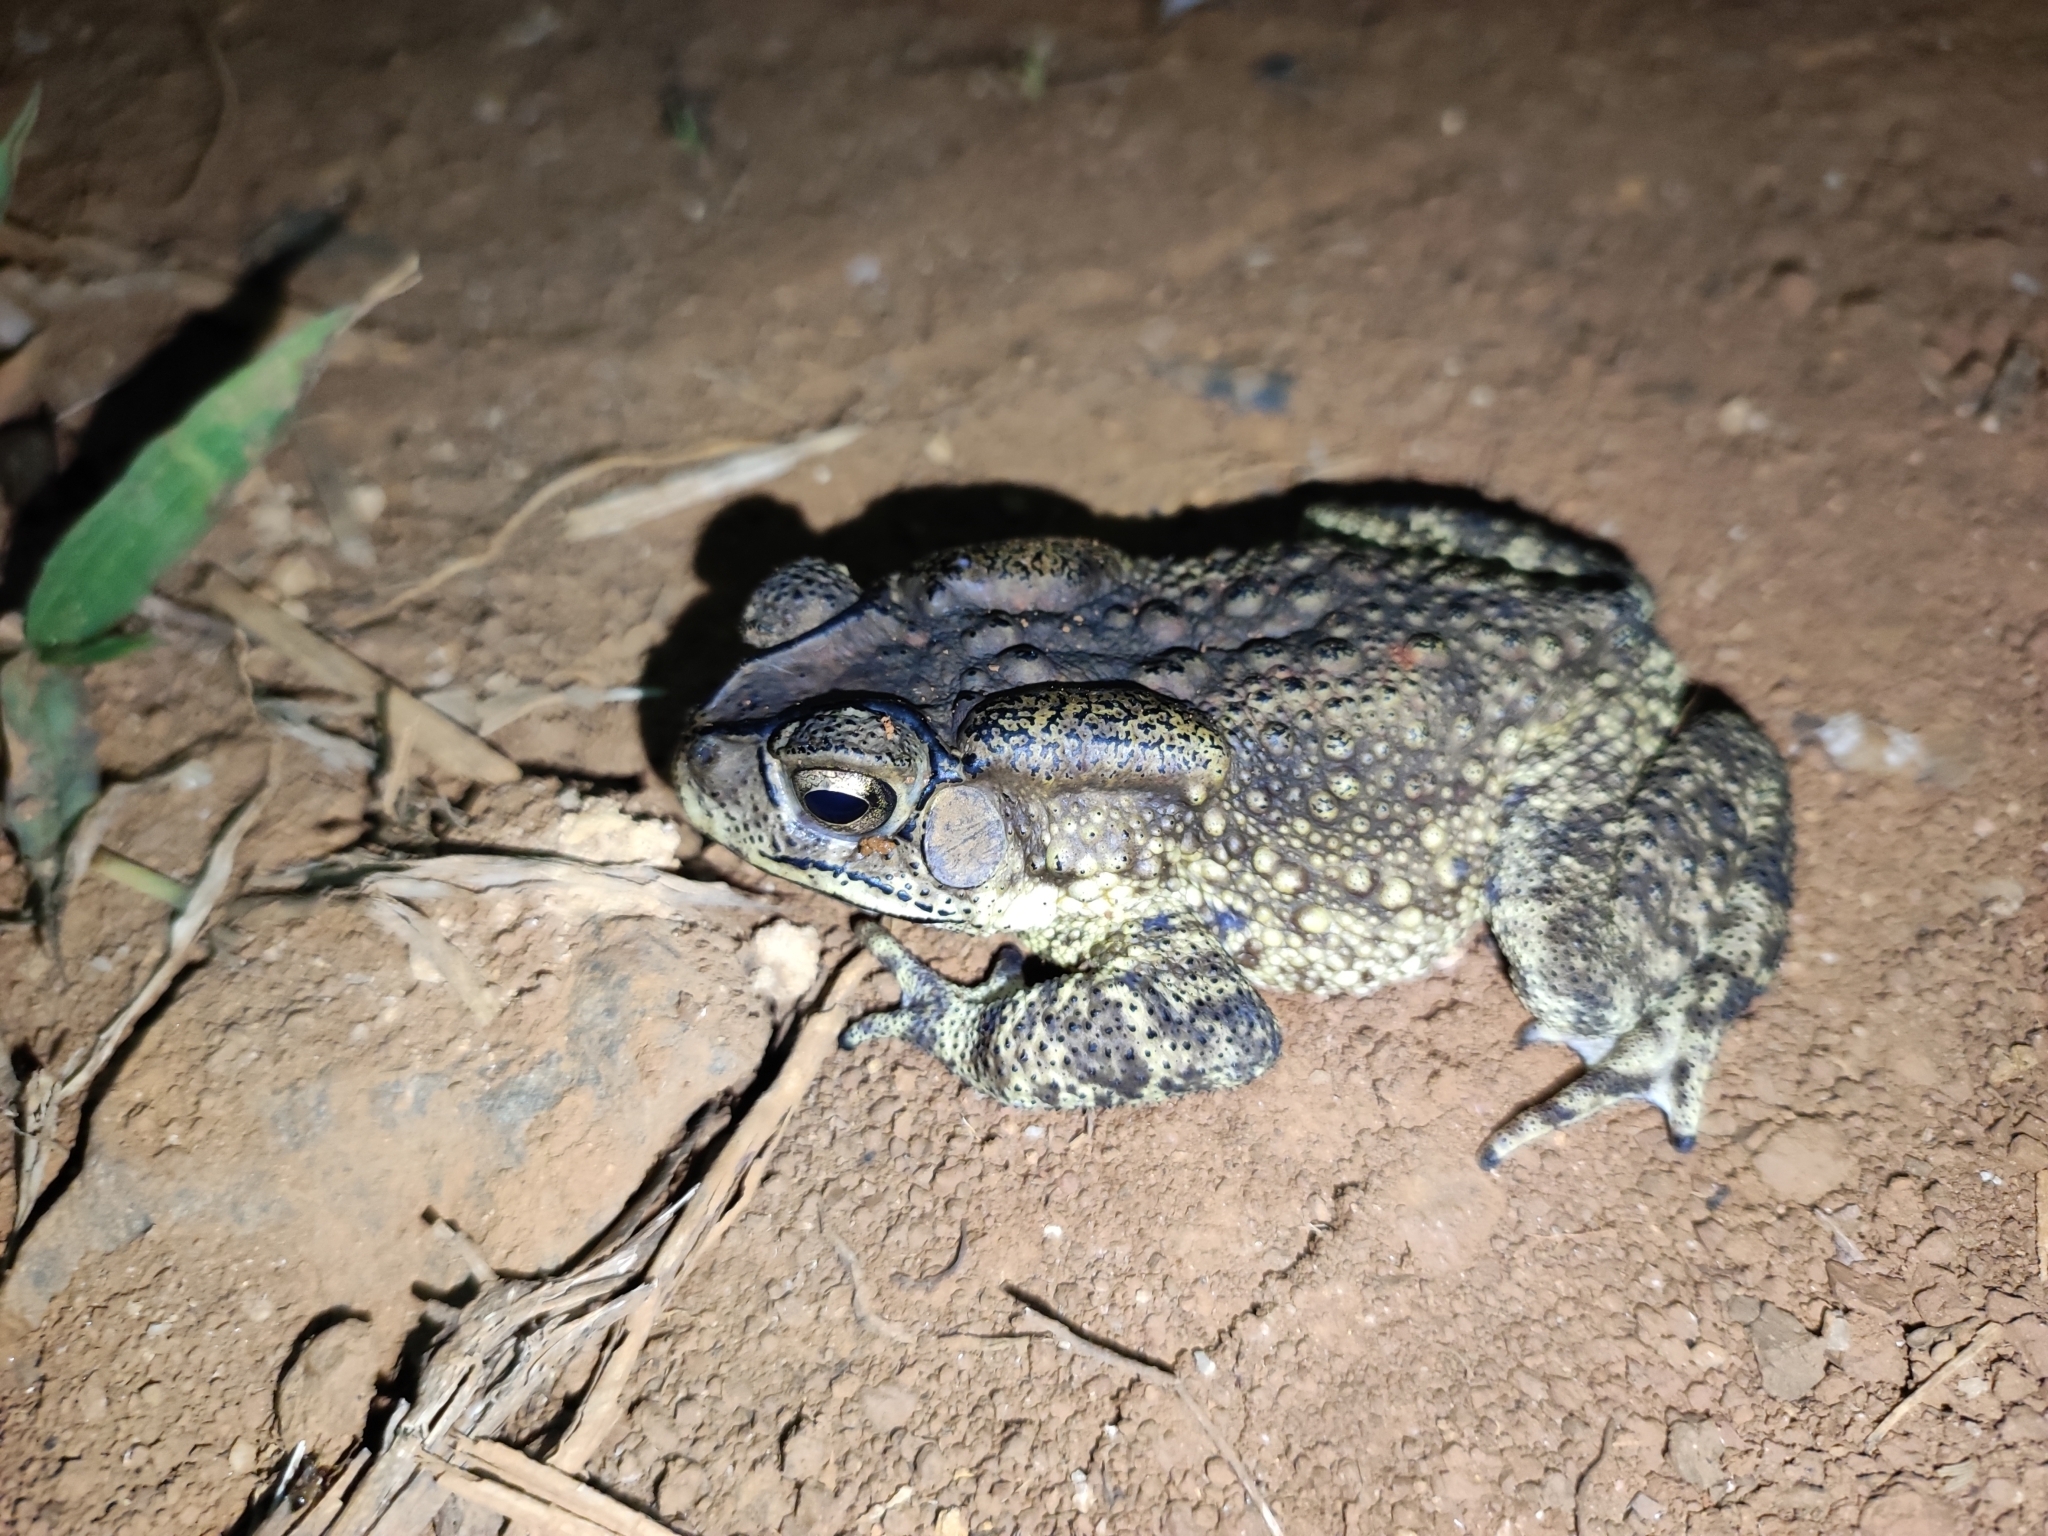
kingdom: Animalia
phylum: Chordata
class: Amphibia
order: Anura
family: Bufonidae
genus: Duttaphrynus
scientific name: Duttaphrynus melanostictus
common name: Common sunda toad
